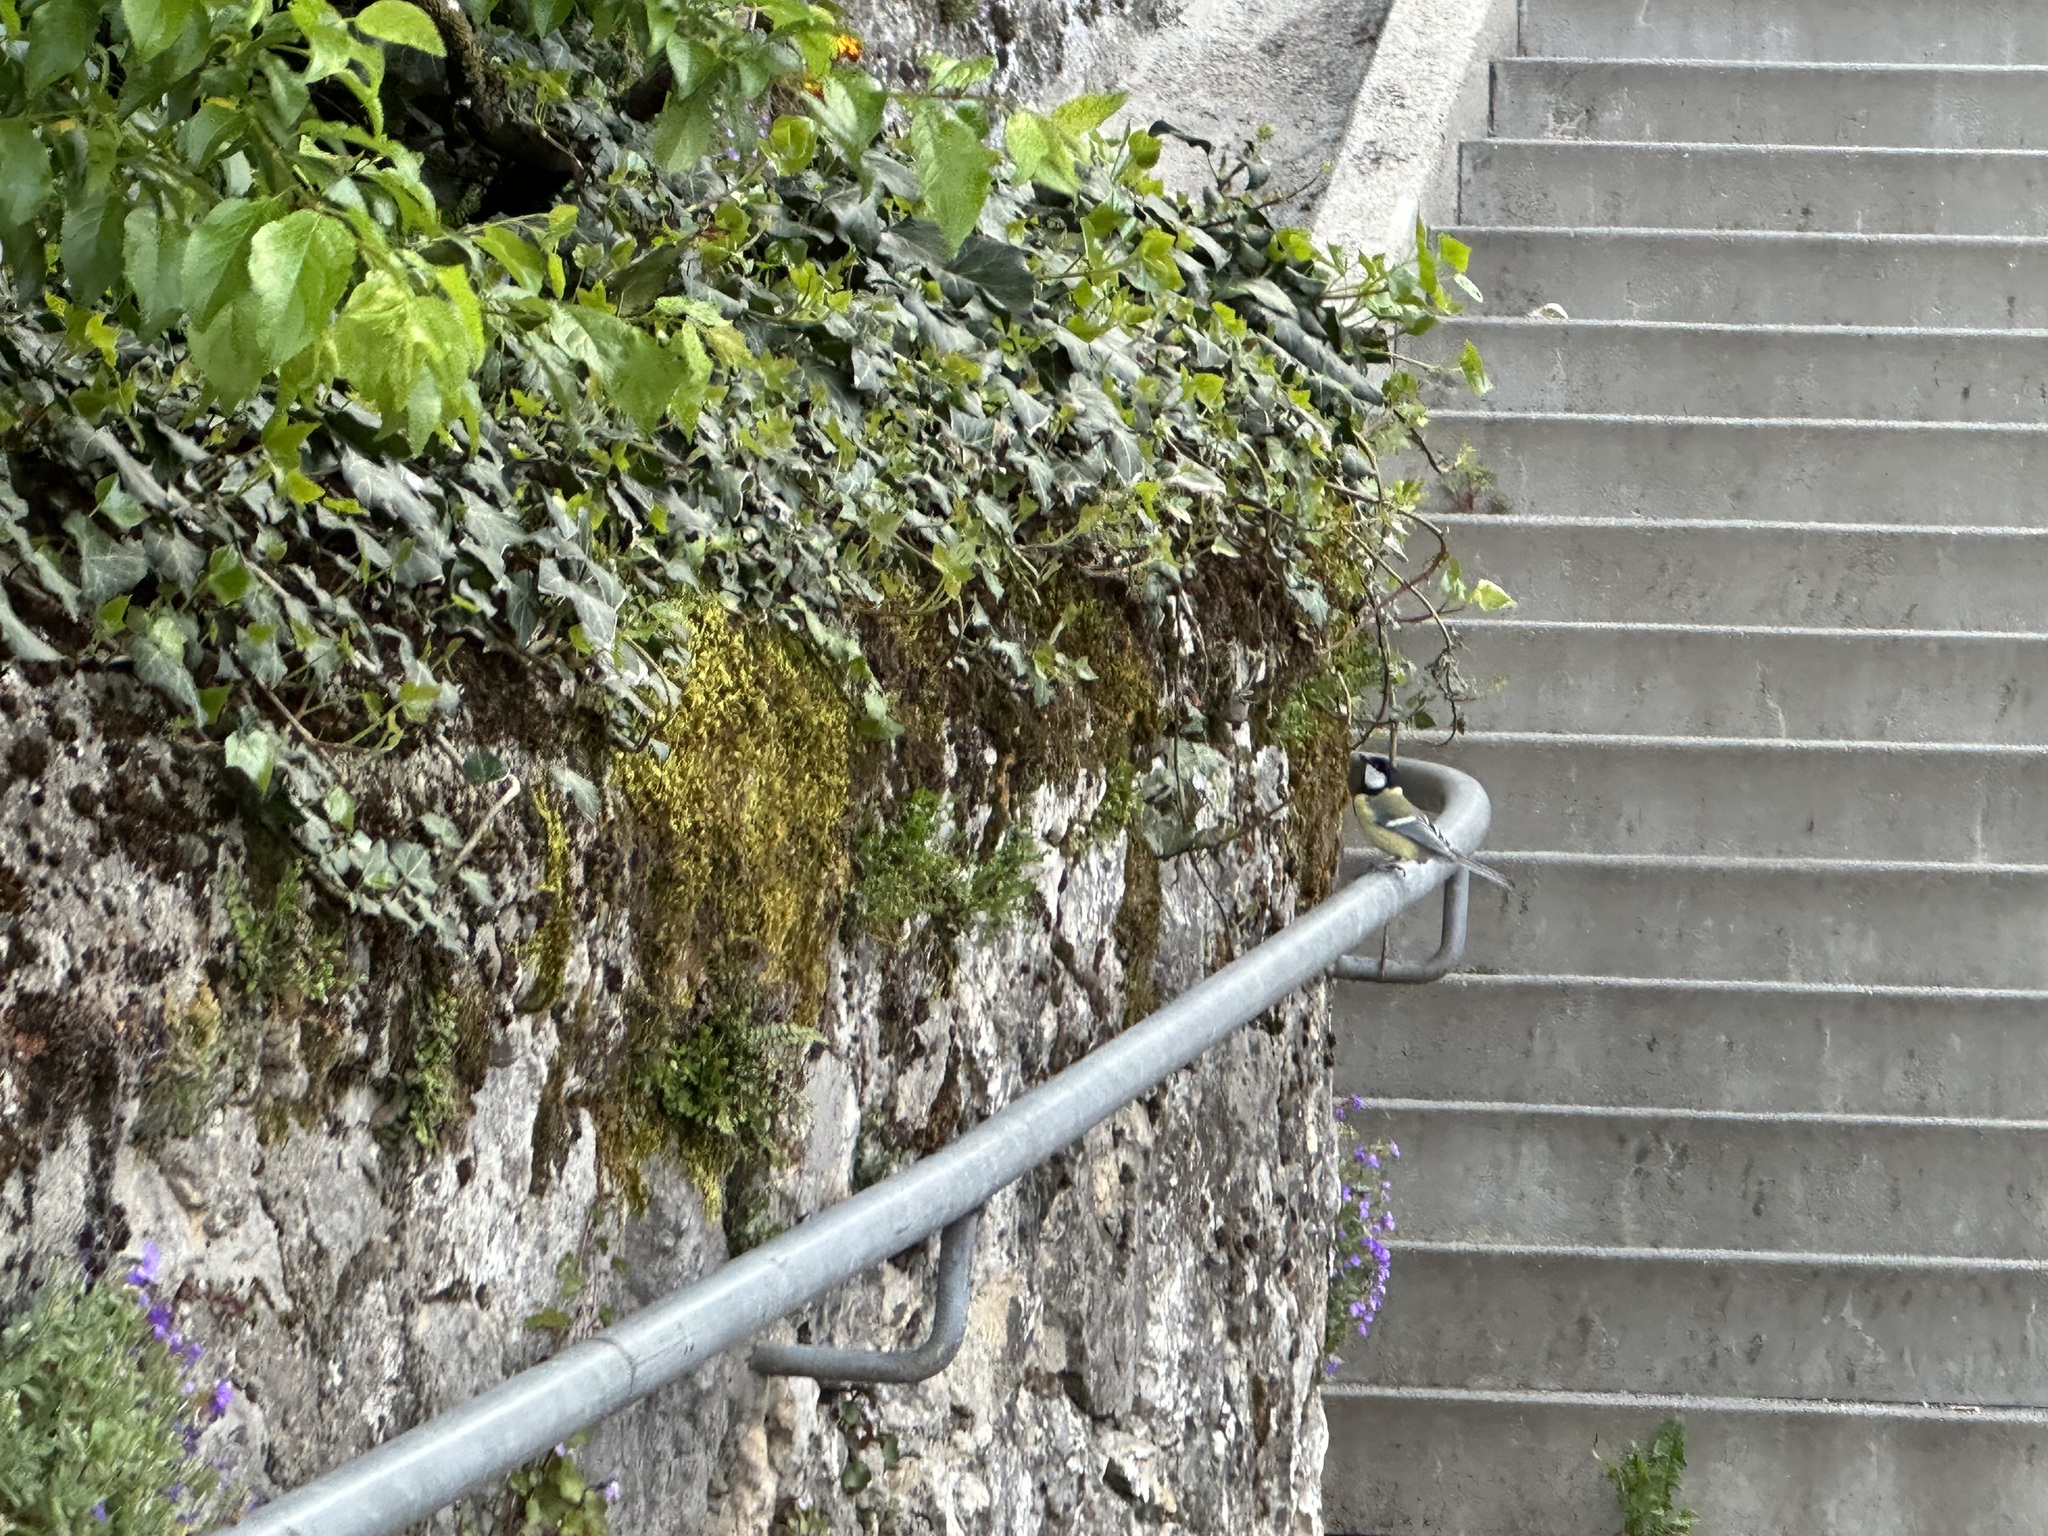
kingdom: Animalia
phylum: Chordata
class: Aves
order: Passeriformes
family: Paridae
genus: Parus
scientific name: Parus major
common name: Great tit
